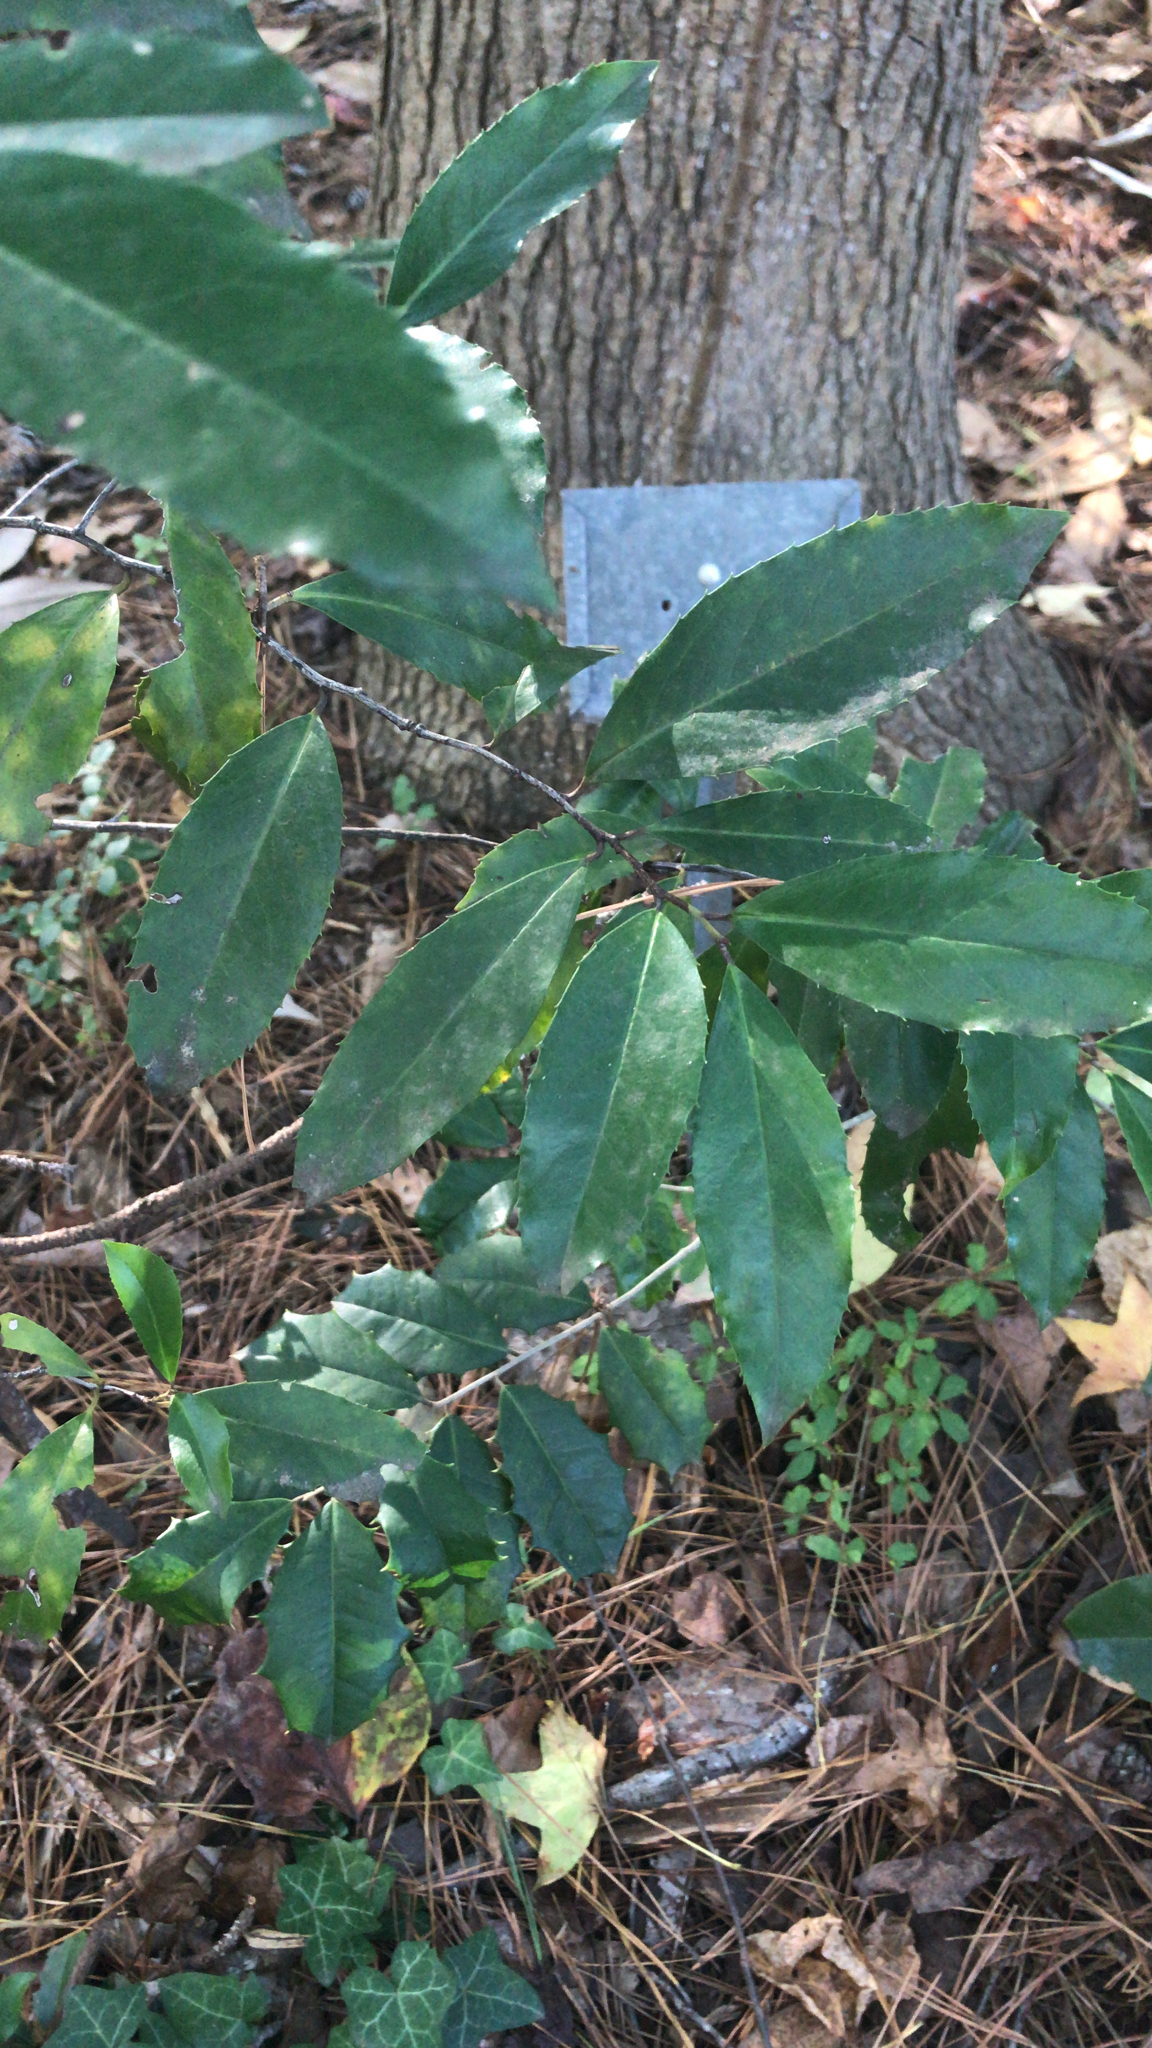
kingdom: Plantae
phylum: Tracheophyta
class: Magnoliopsida
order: Rosales
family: Rosaceae
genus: Prunus
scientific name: Prunus caroliniana
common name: Carolina laurel cherry
